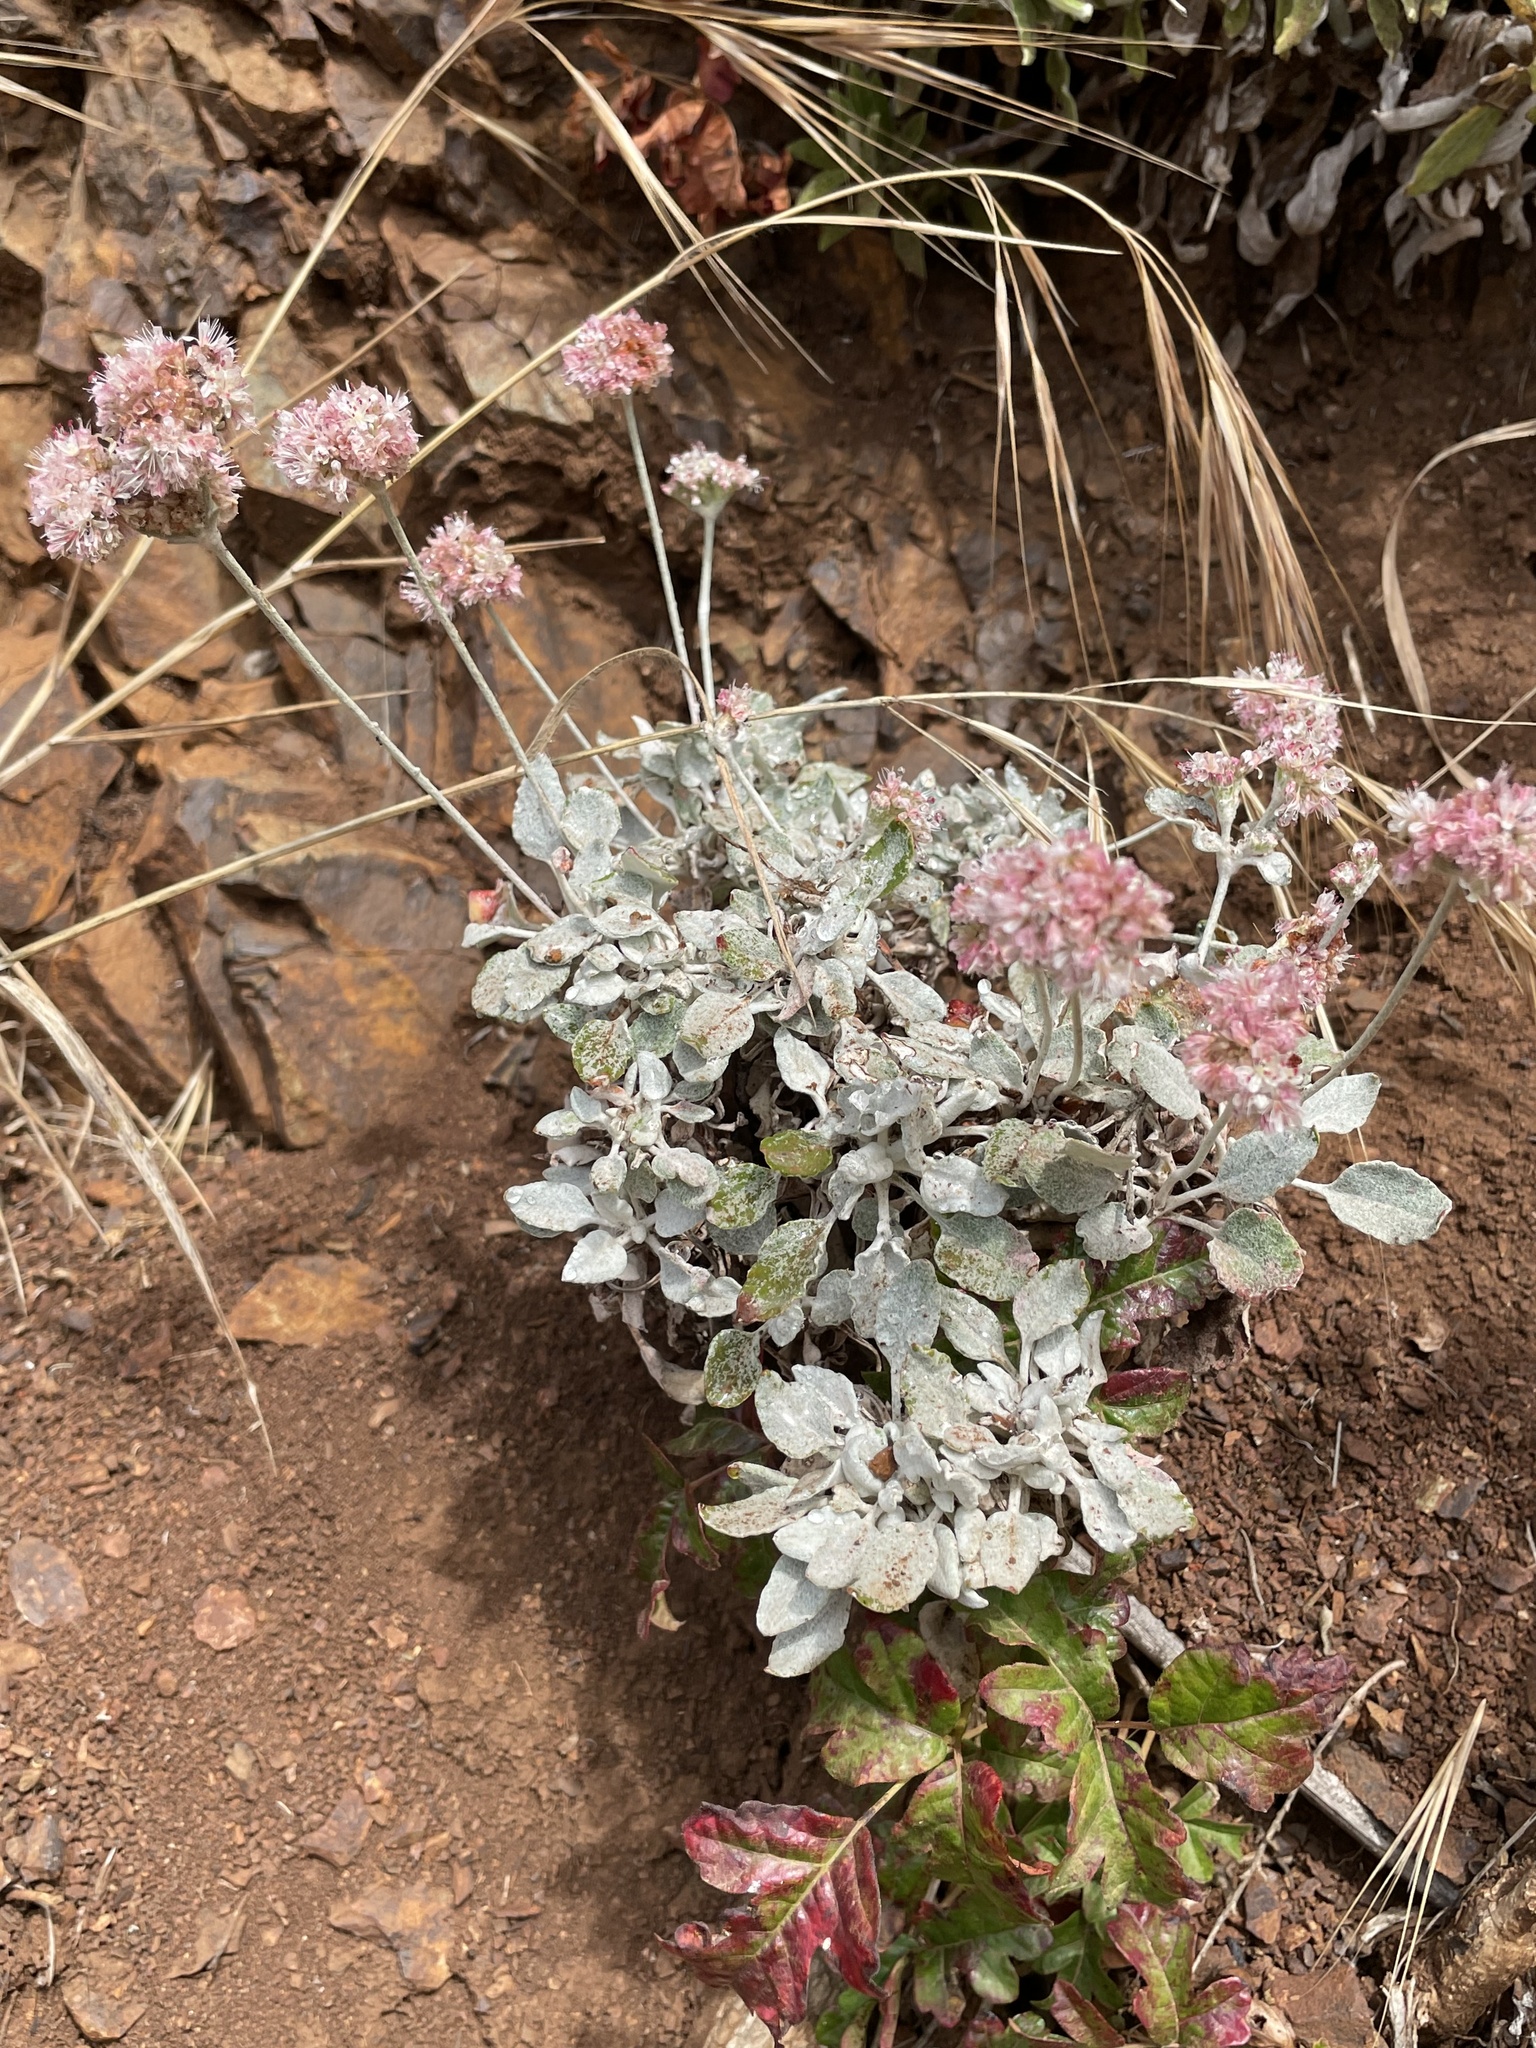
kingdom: Plantae
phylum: Tracheophyta
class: Magnoliopsida
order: Caryophyllales
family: Polygonaceae
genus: Eriogonum
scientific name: Eriogonum latifolium
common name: Seaside wild buckwheat
